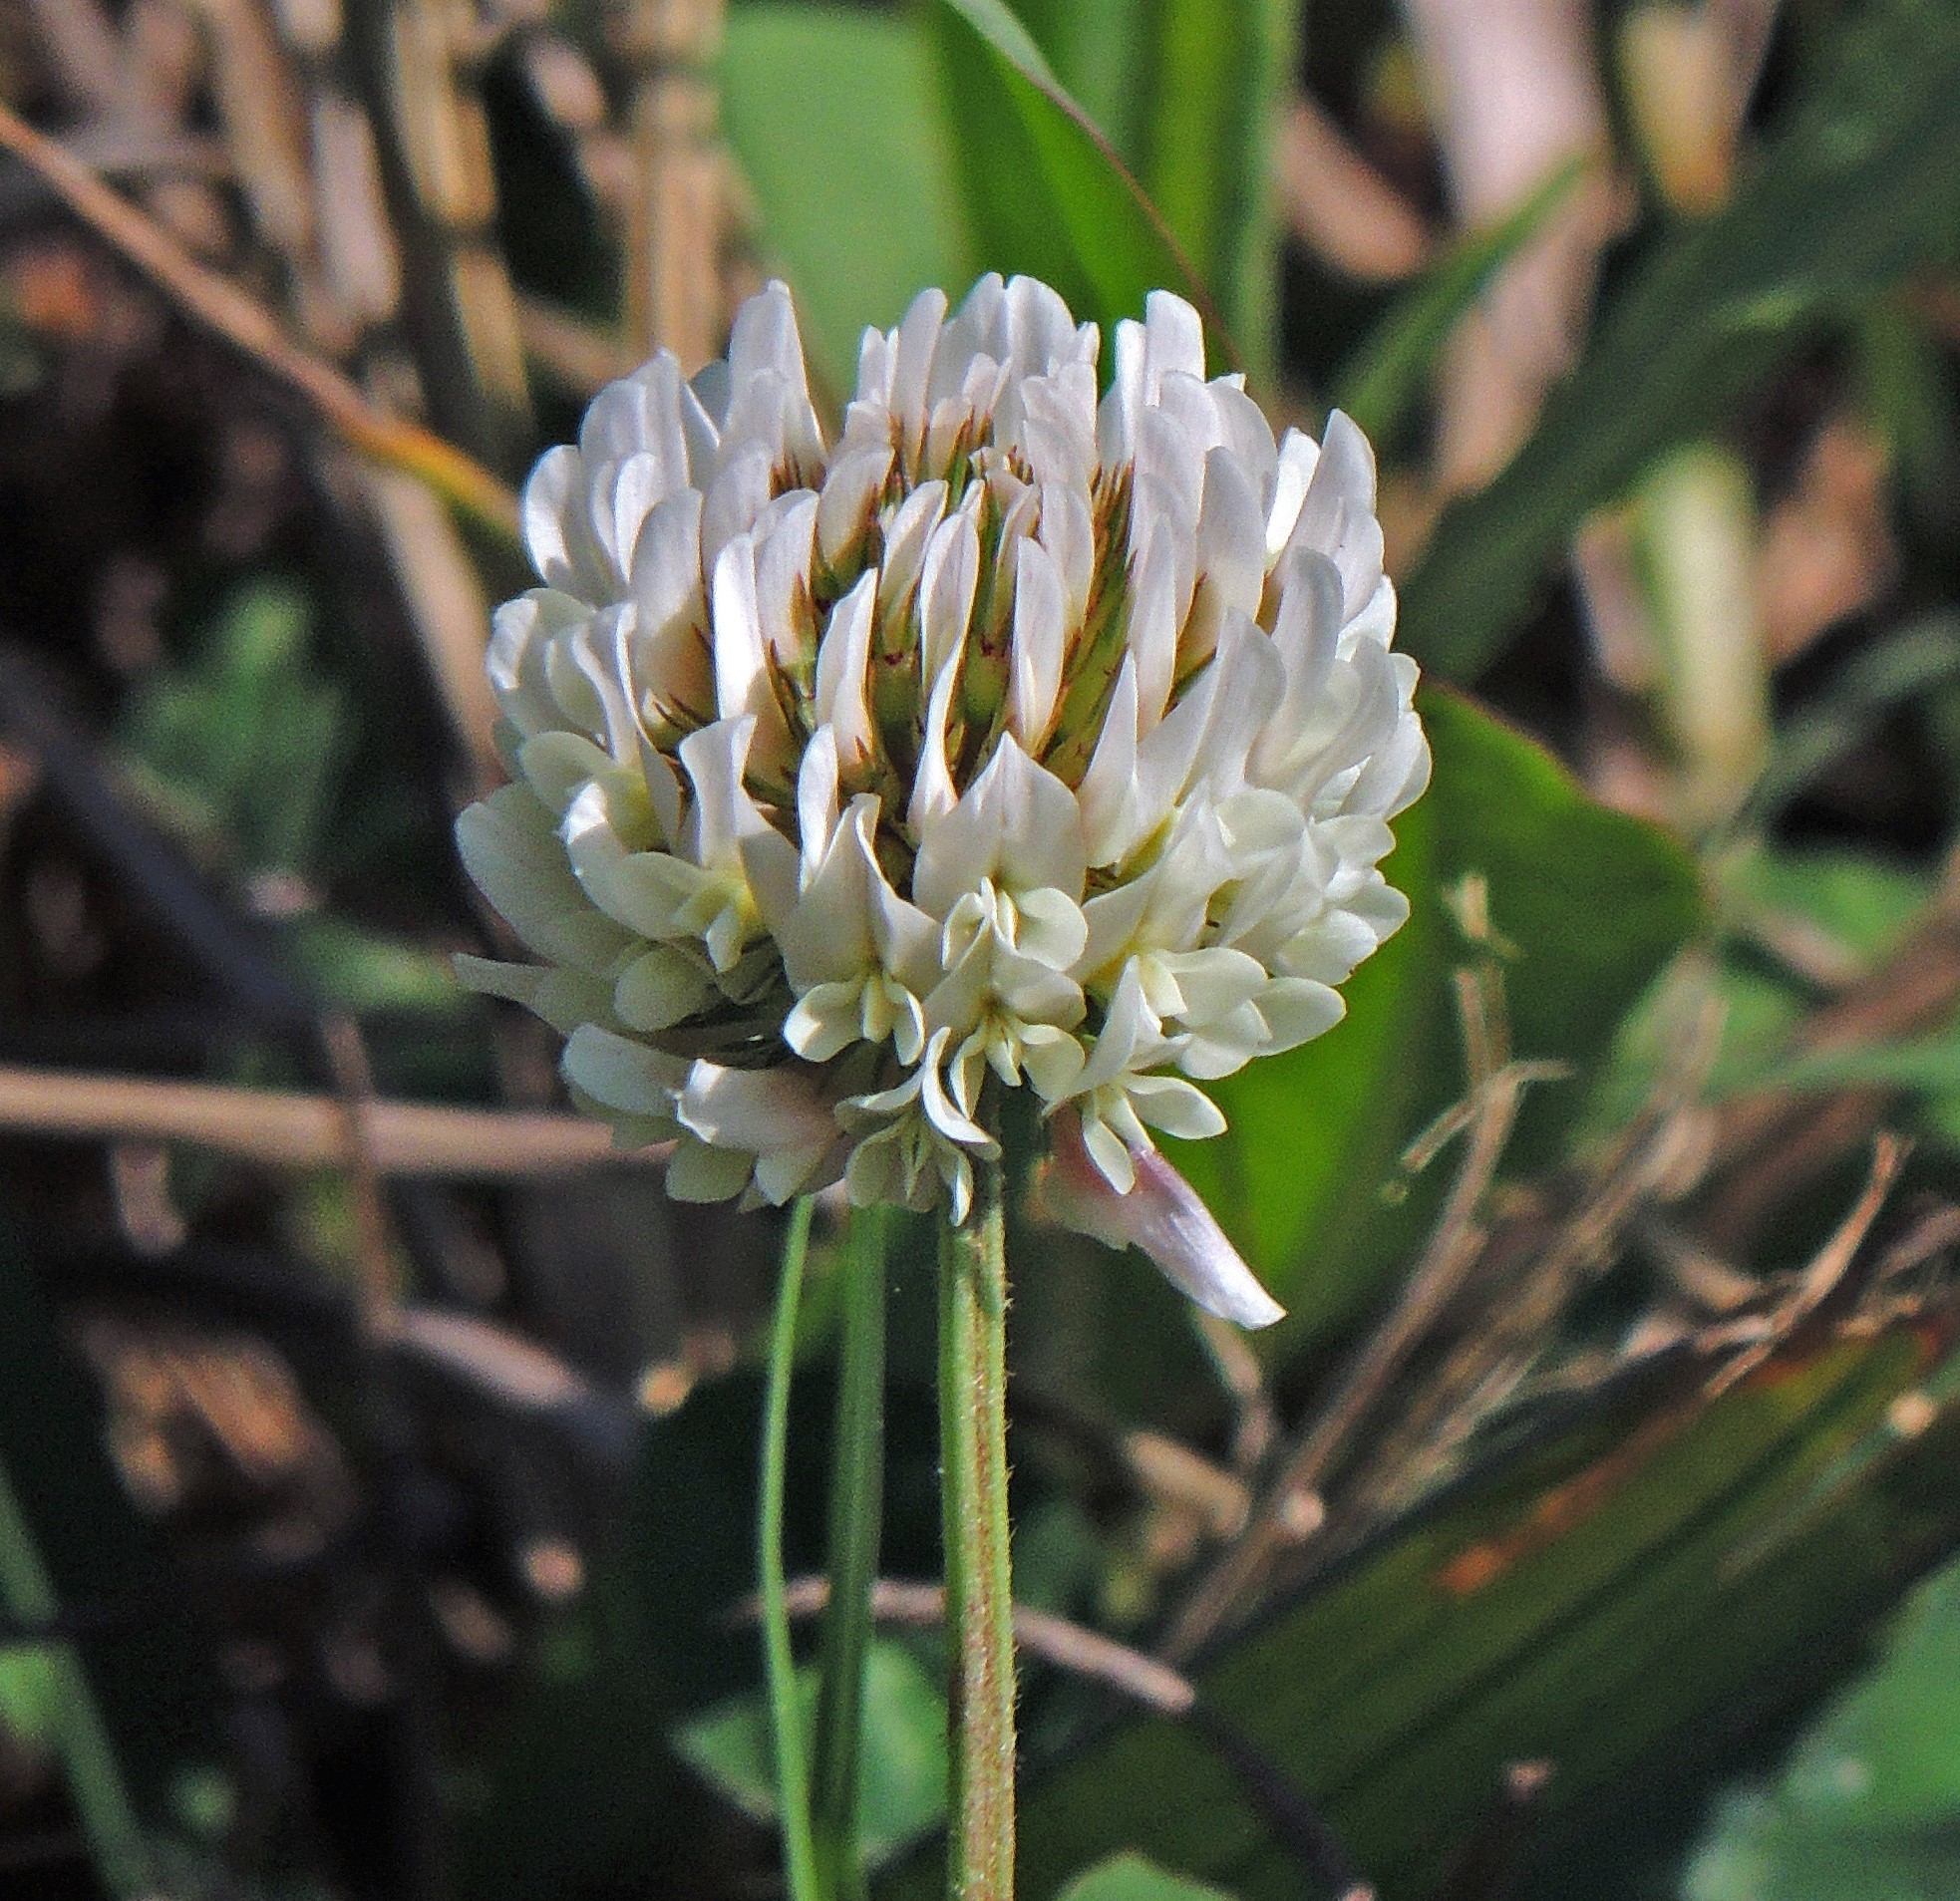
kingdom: Plantae
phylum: Tracheophyta
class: Magnoliopsida
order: Fabales
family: Fabaceae
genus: Trifolium
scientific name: Trifolium repens
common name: White clover
